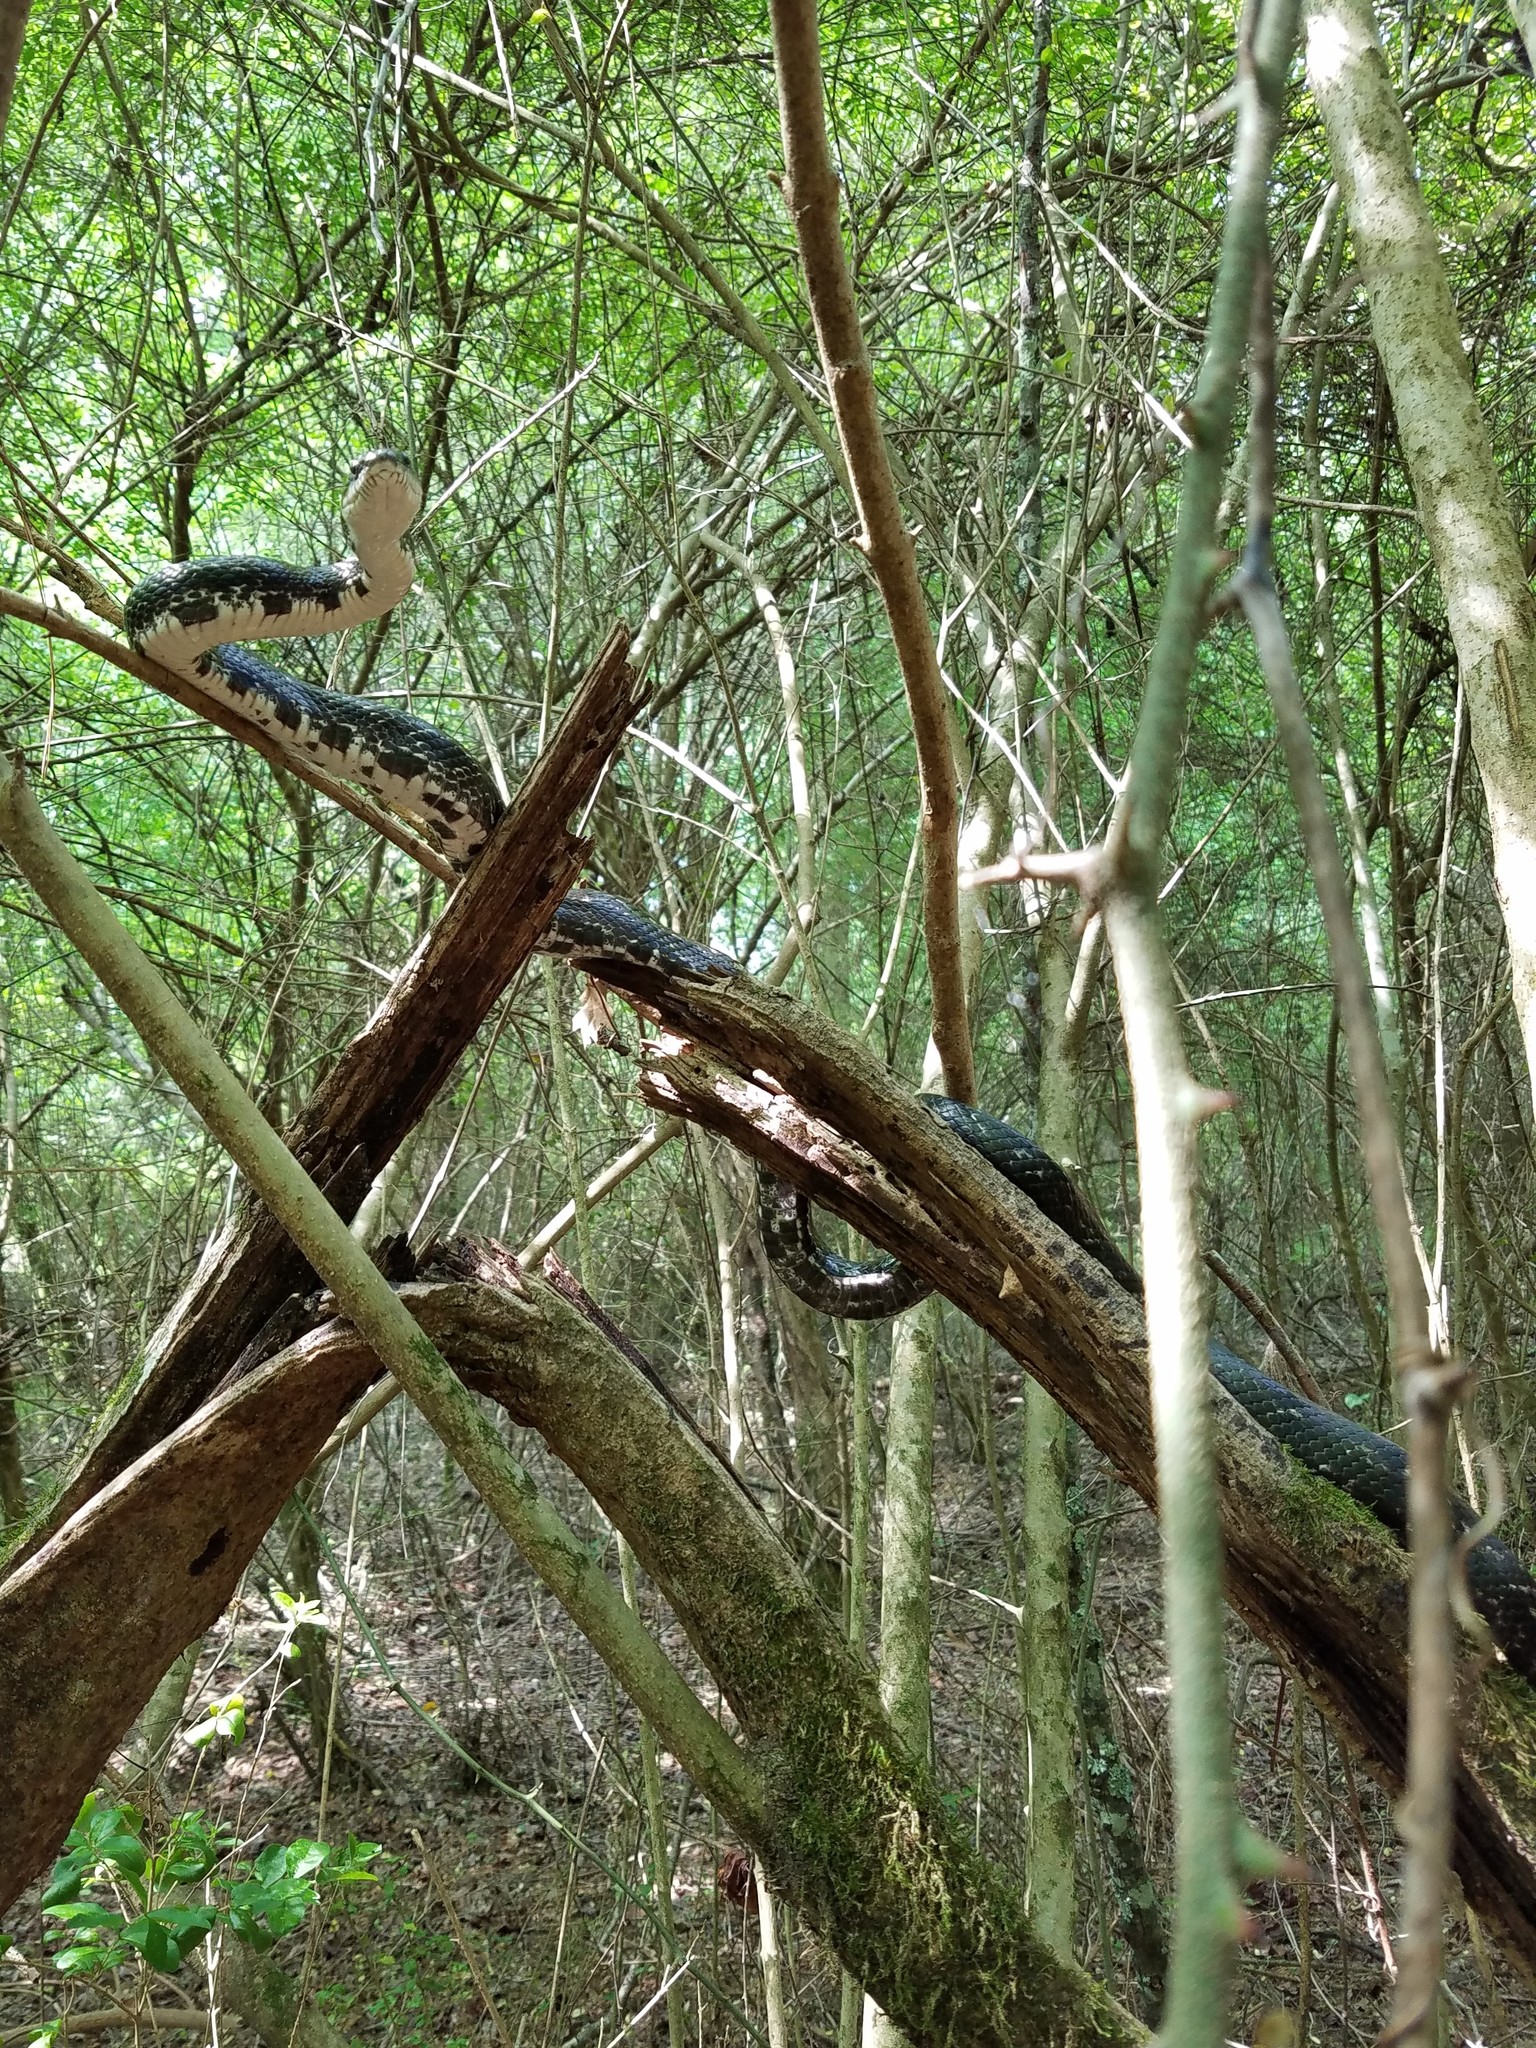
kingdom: Animalia
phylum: Chordata
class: Squamata
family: Colubridae
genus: Pantherophis
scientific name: Pantherophis alleghaniensis
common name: Eastern rat snake
